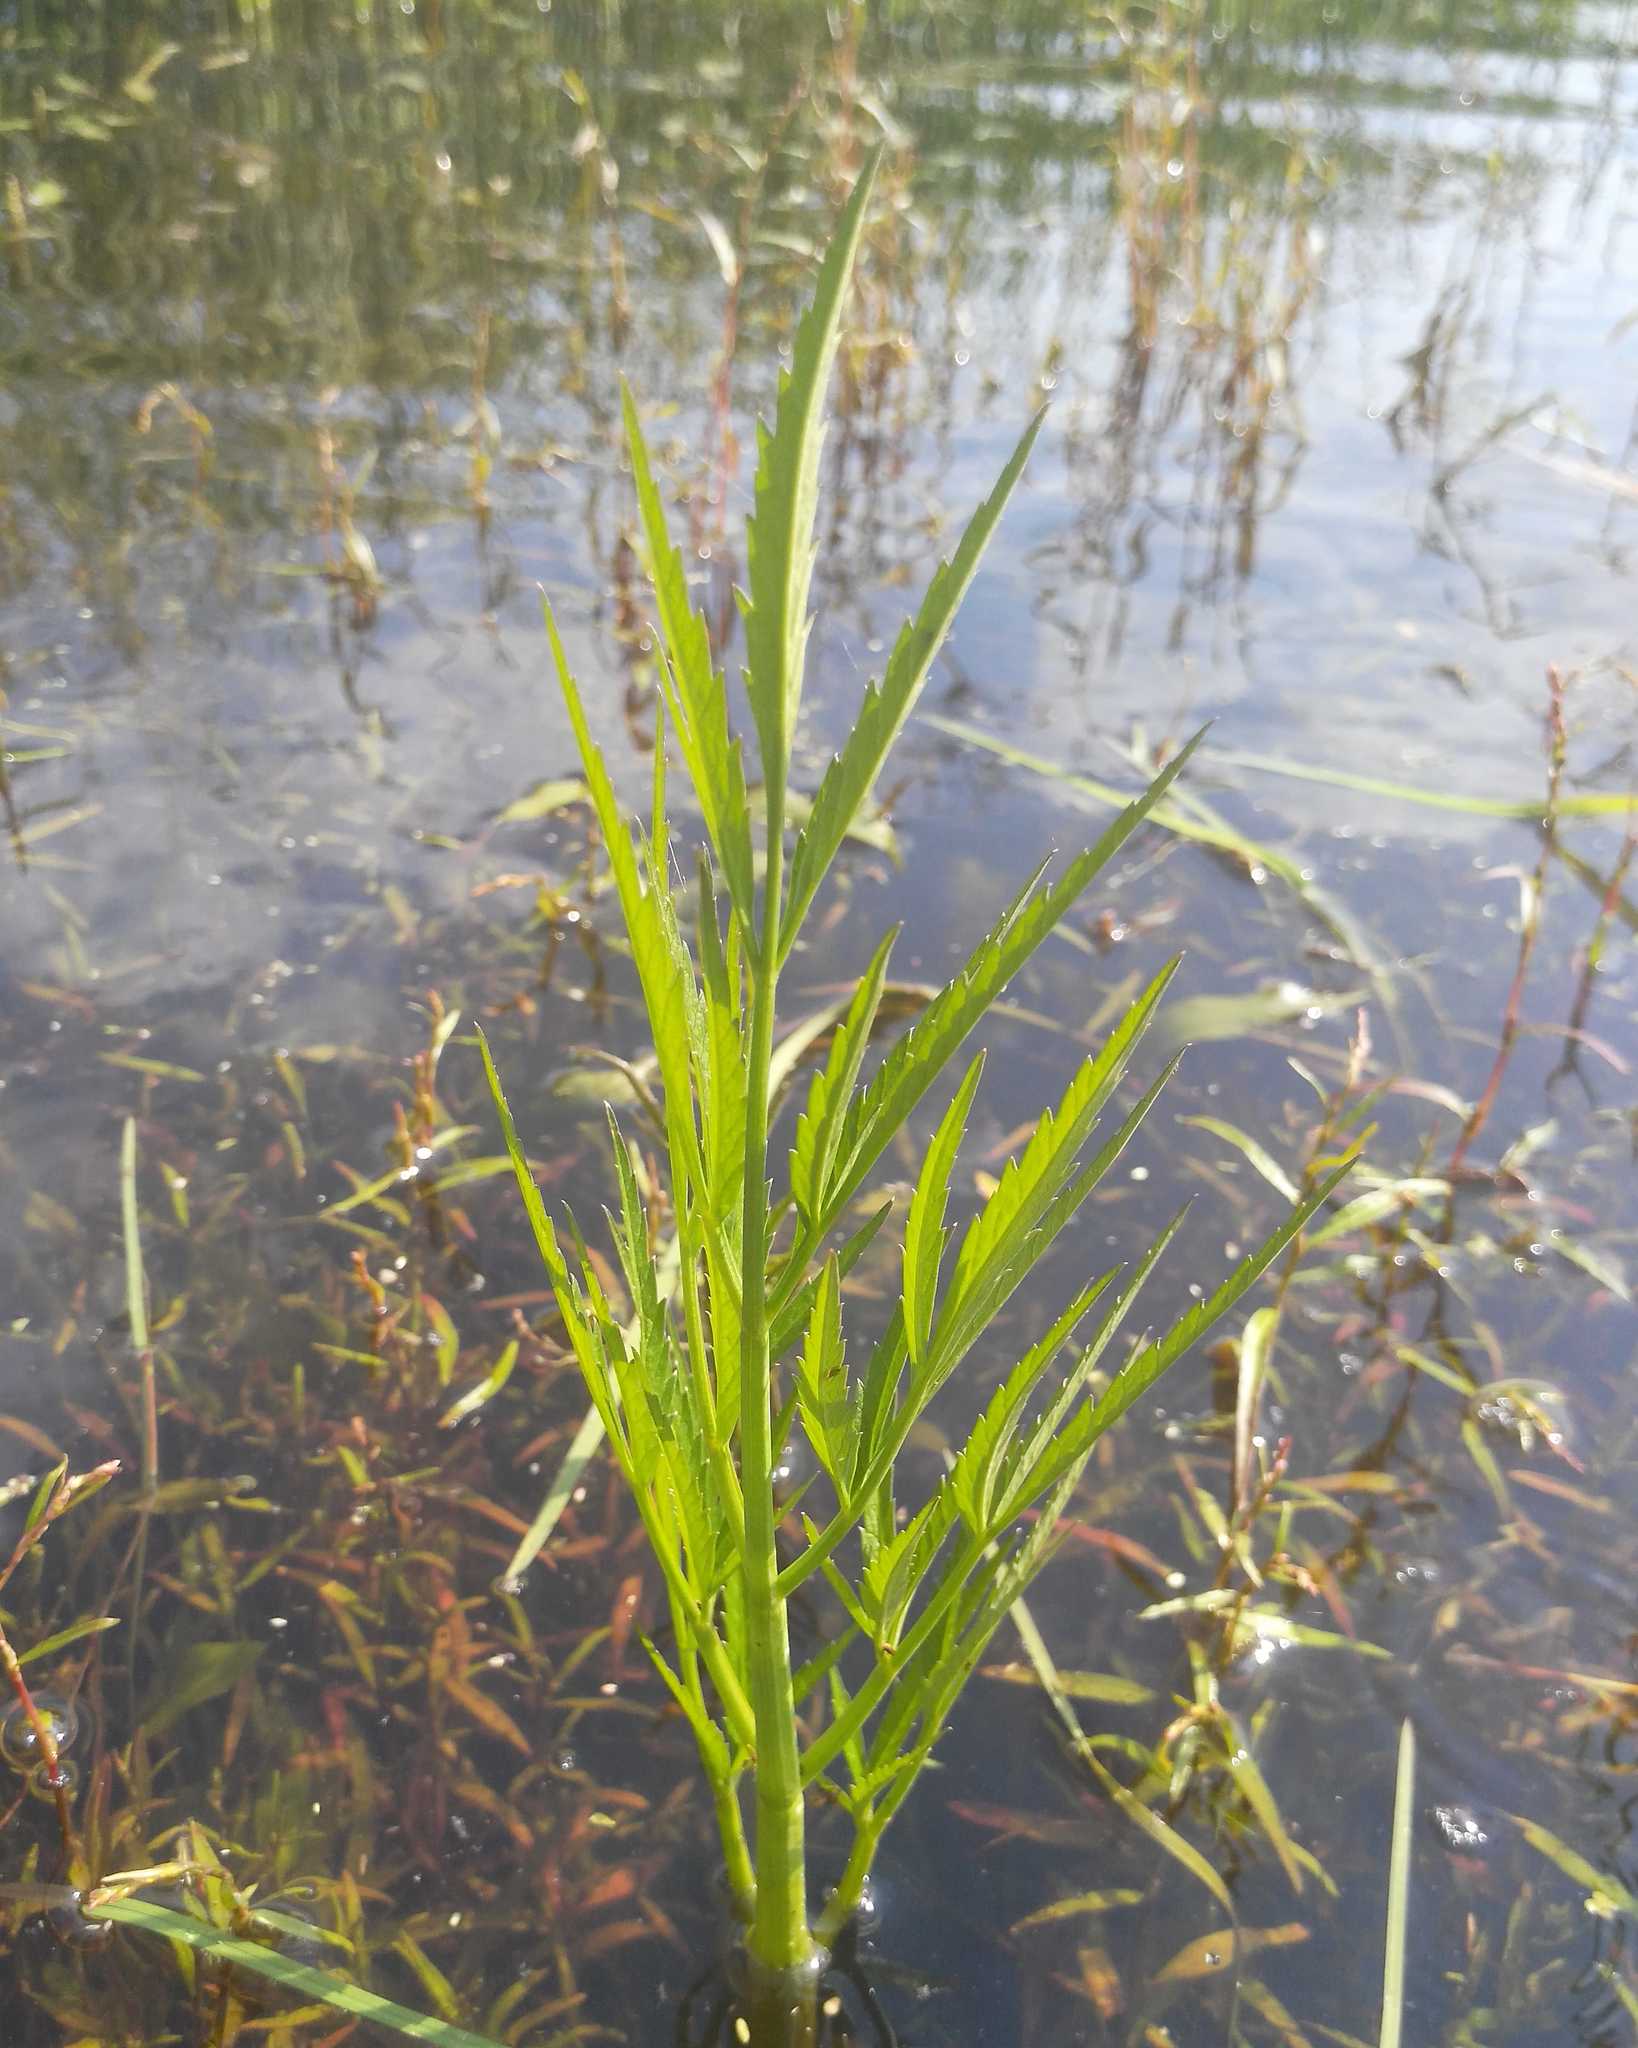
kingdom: Plantae
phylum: Tracheophyta
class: Magnoliopsida
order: Apiales
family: Apiaceae
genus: Cicuta
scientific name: Cicuta virosa
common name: Cowbane
